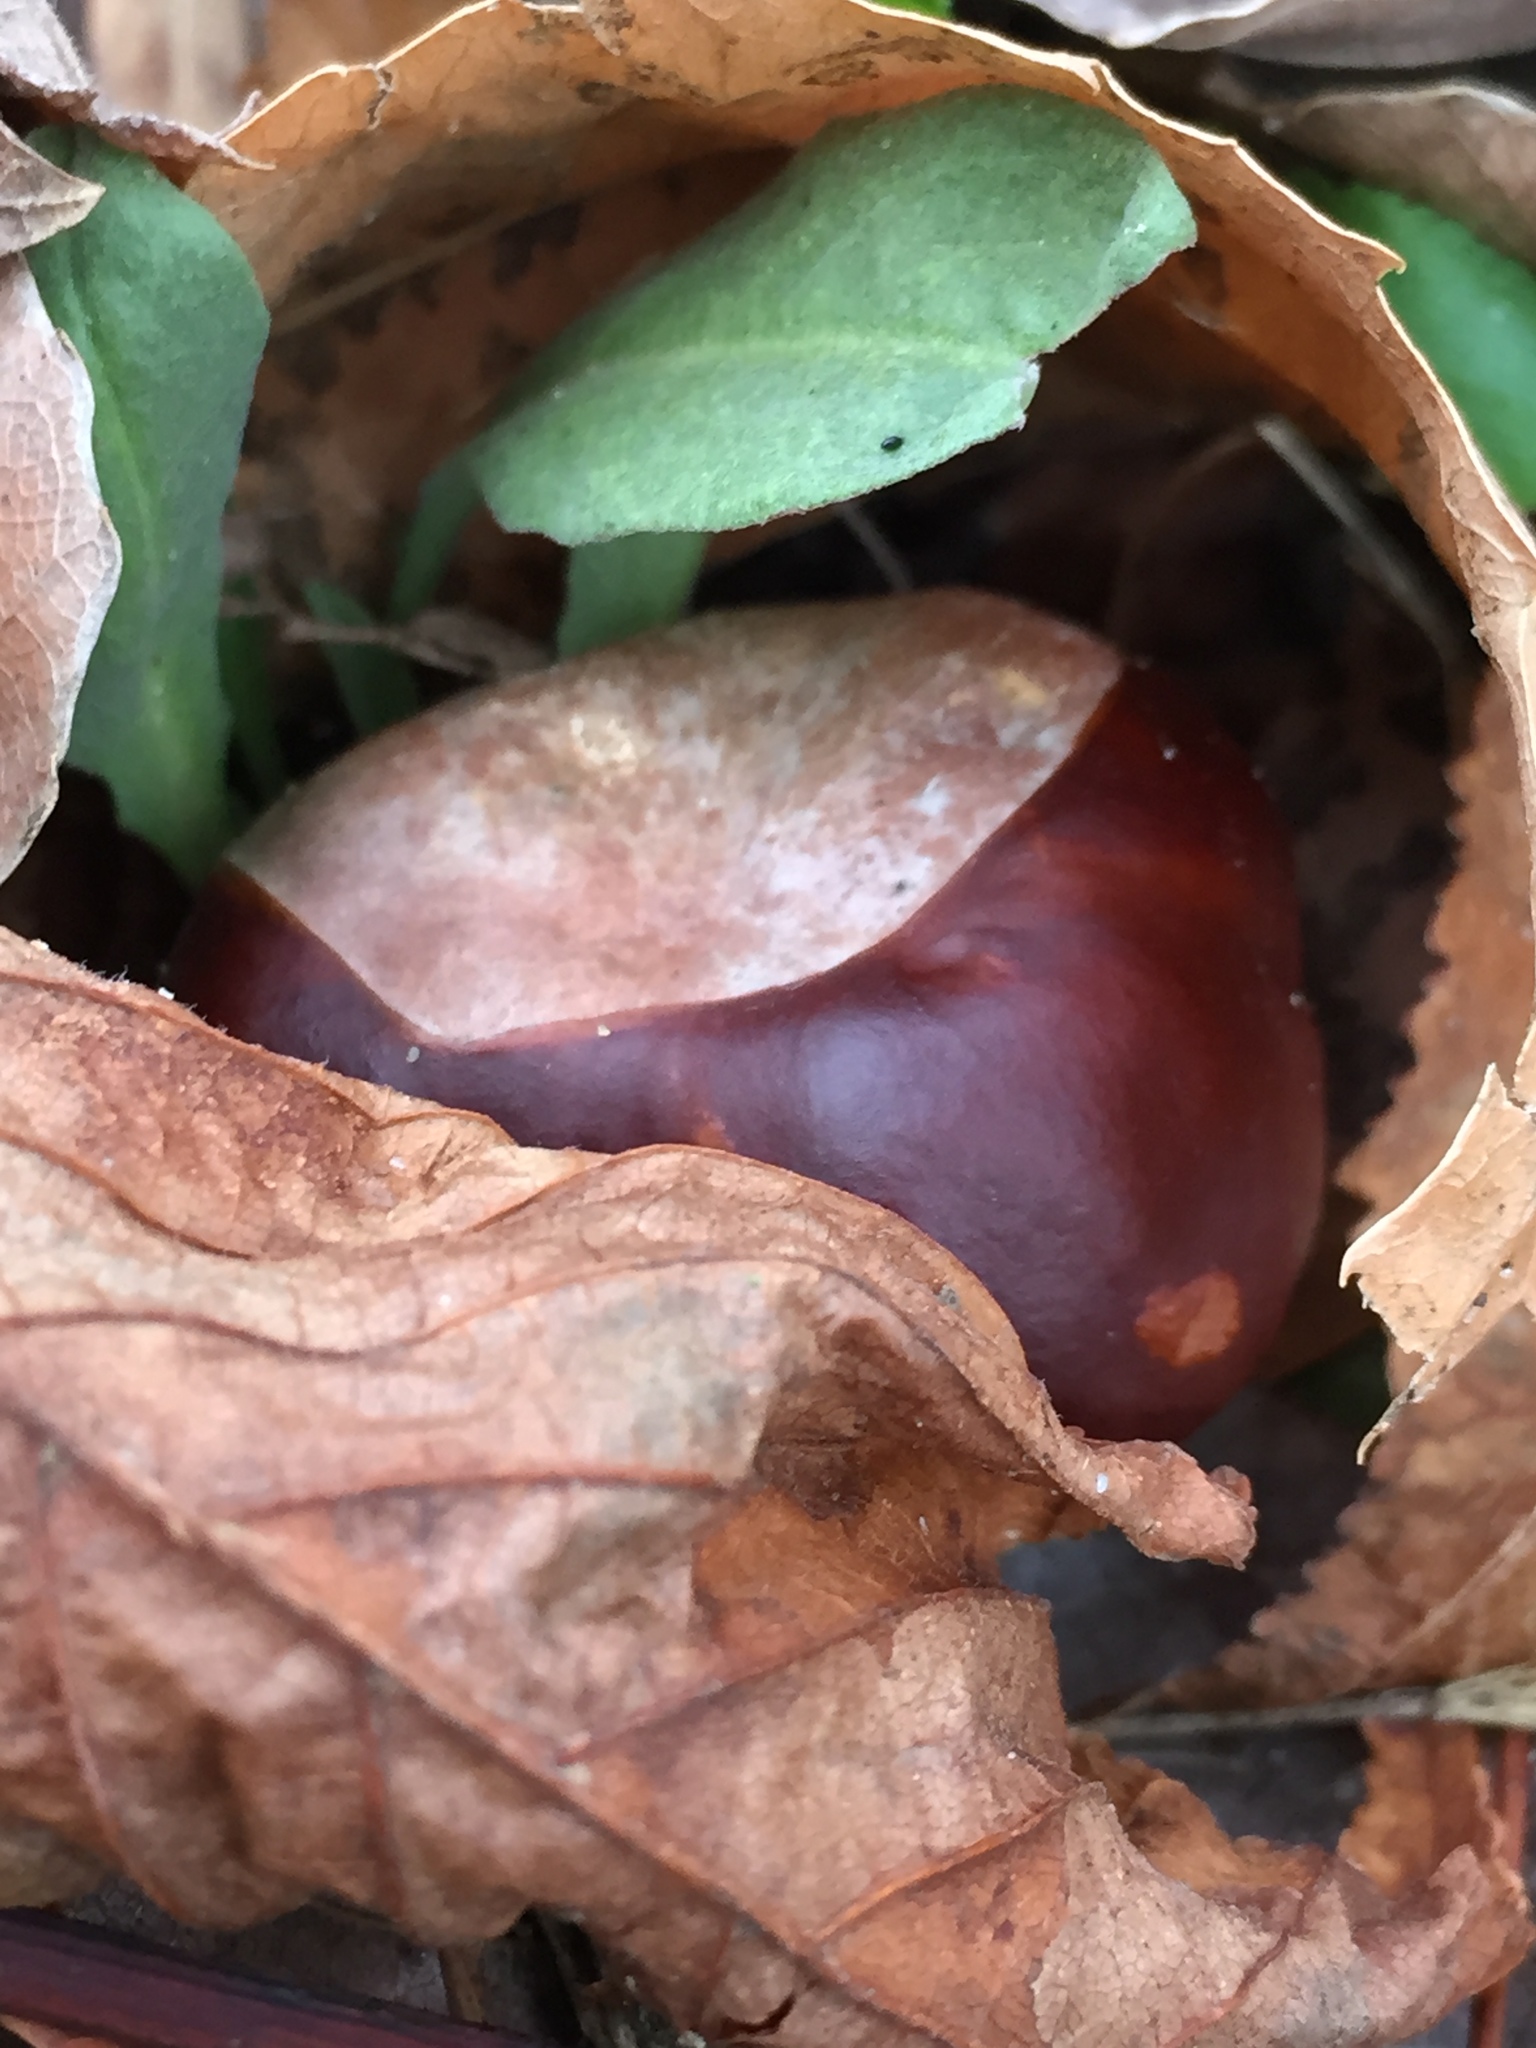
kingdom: Plantae
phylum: Tracheophyta
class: Magnoliopsida
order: Sapindales
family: Sapindaceae
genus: Aesculus
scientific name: Aesculus hippocastanum
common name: Horse-chestnut
